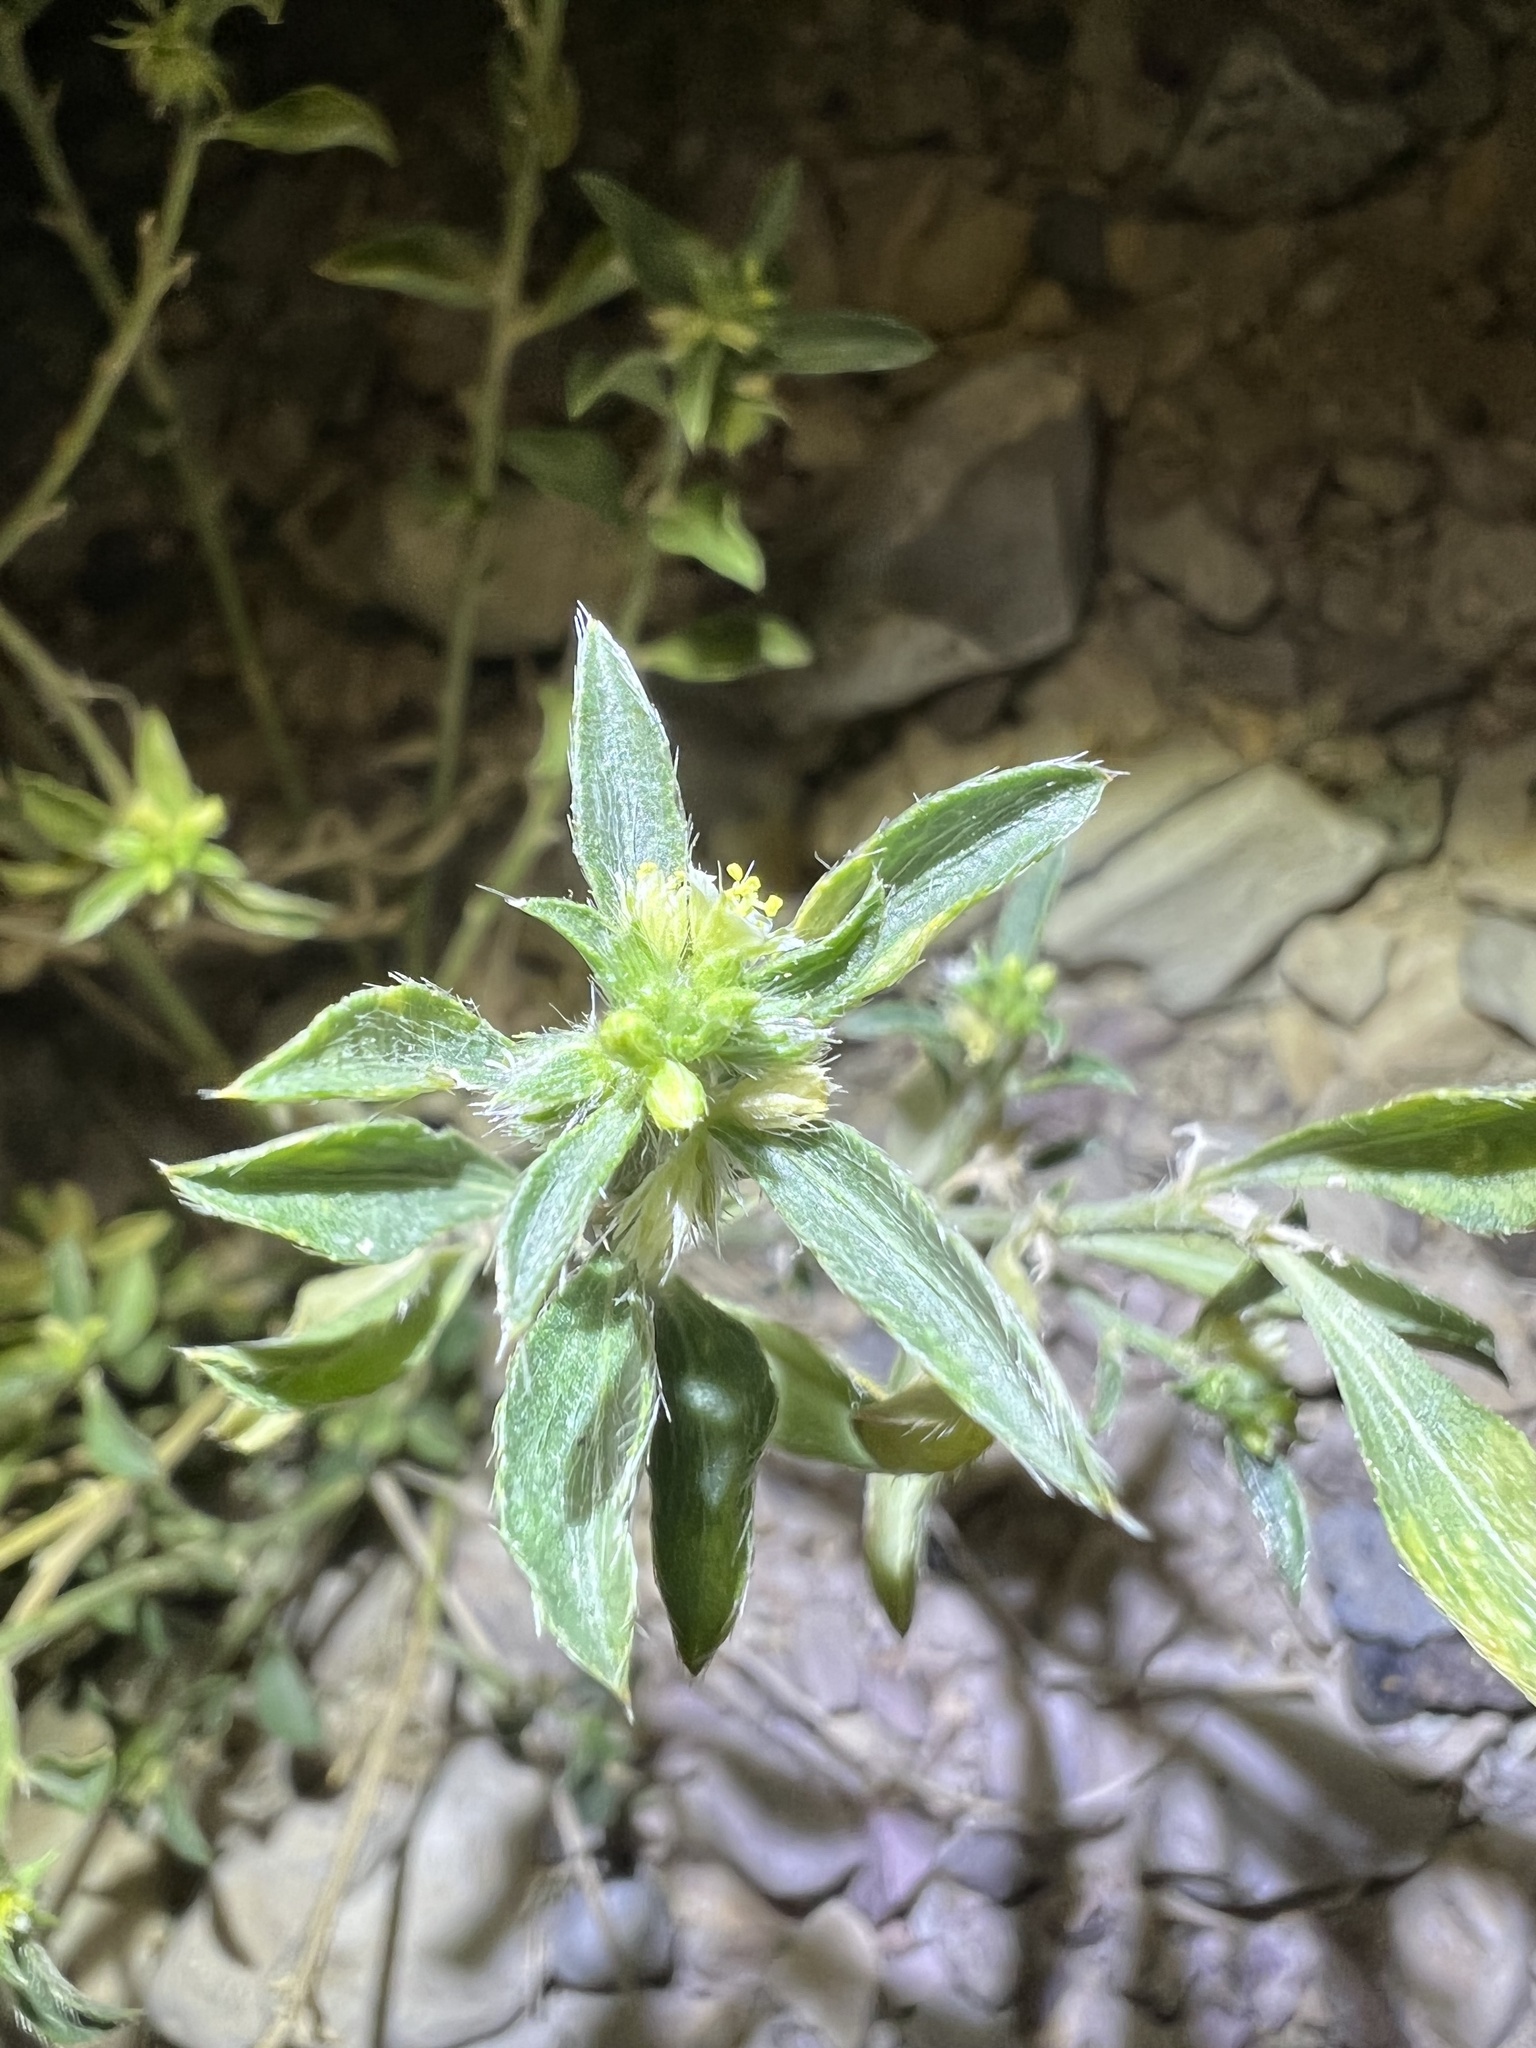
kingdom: Plantae
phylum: Tracheophyta
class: Magnoliopsida
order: Malpighiales
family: Euphorbiaceae
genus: Ditaxis
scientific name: Ditaxis serrata
